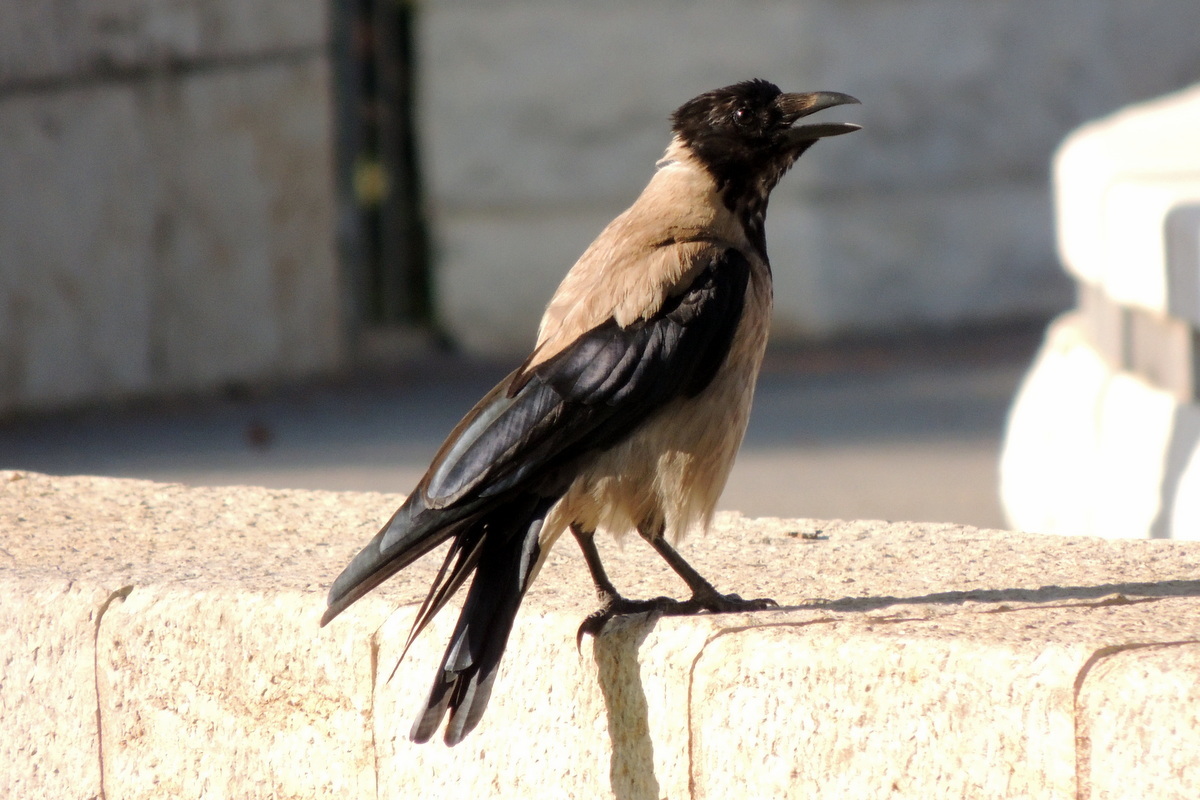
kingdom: Animalia
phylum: Chordata
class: Aves
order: Passeriformes
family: Corvidae
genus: Corvus
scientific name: Corvus cornix
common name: Hooded crow
